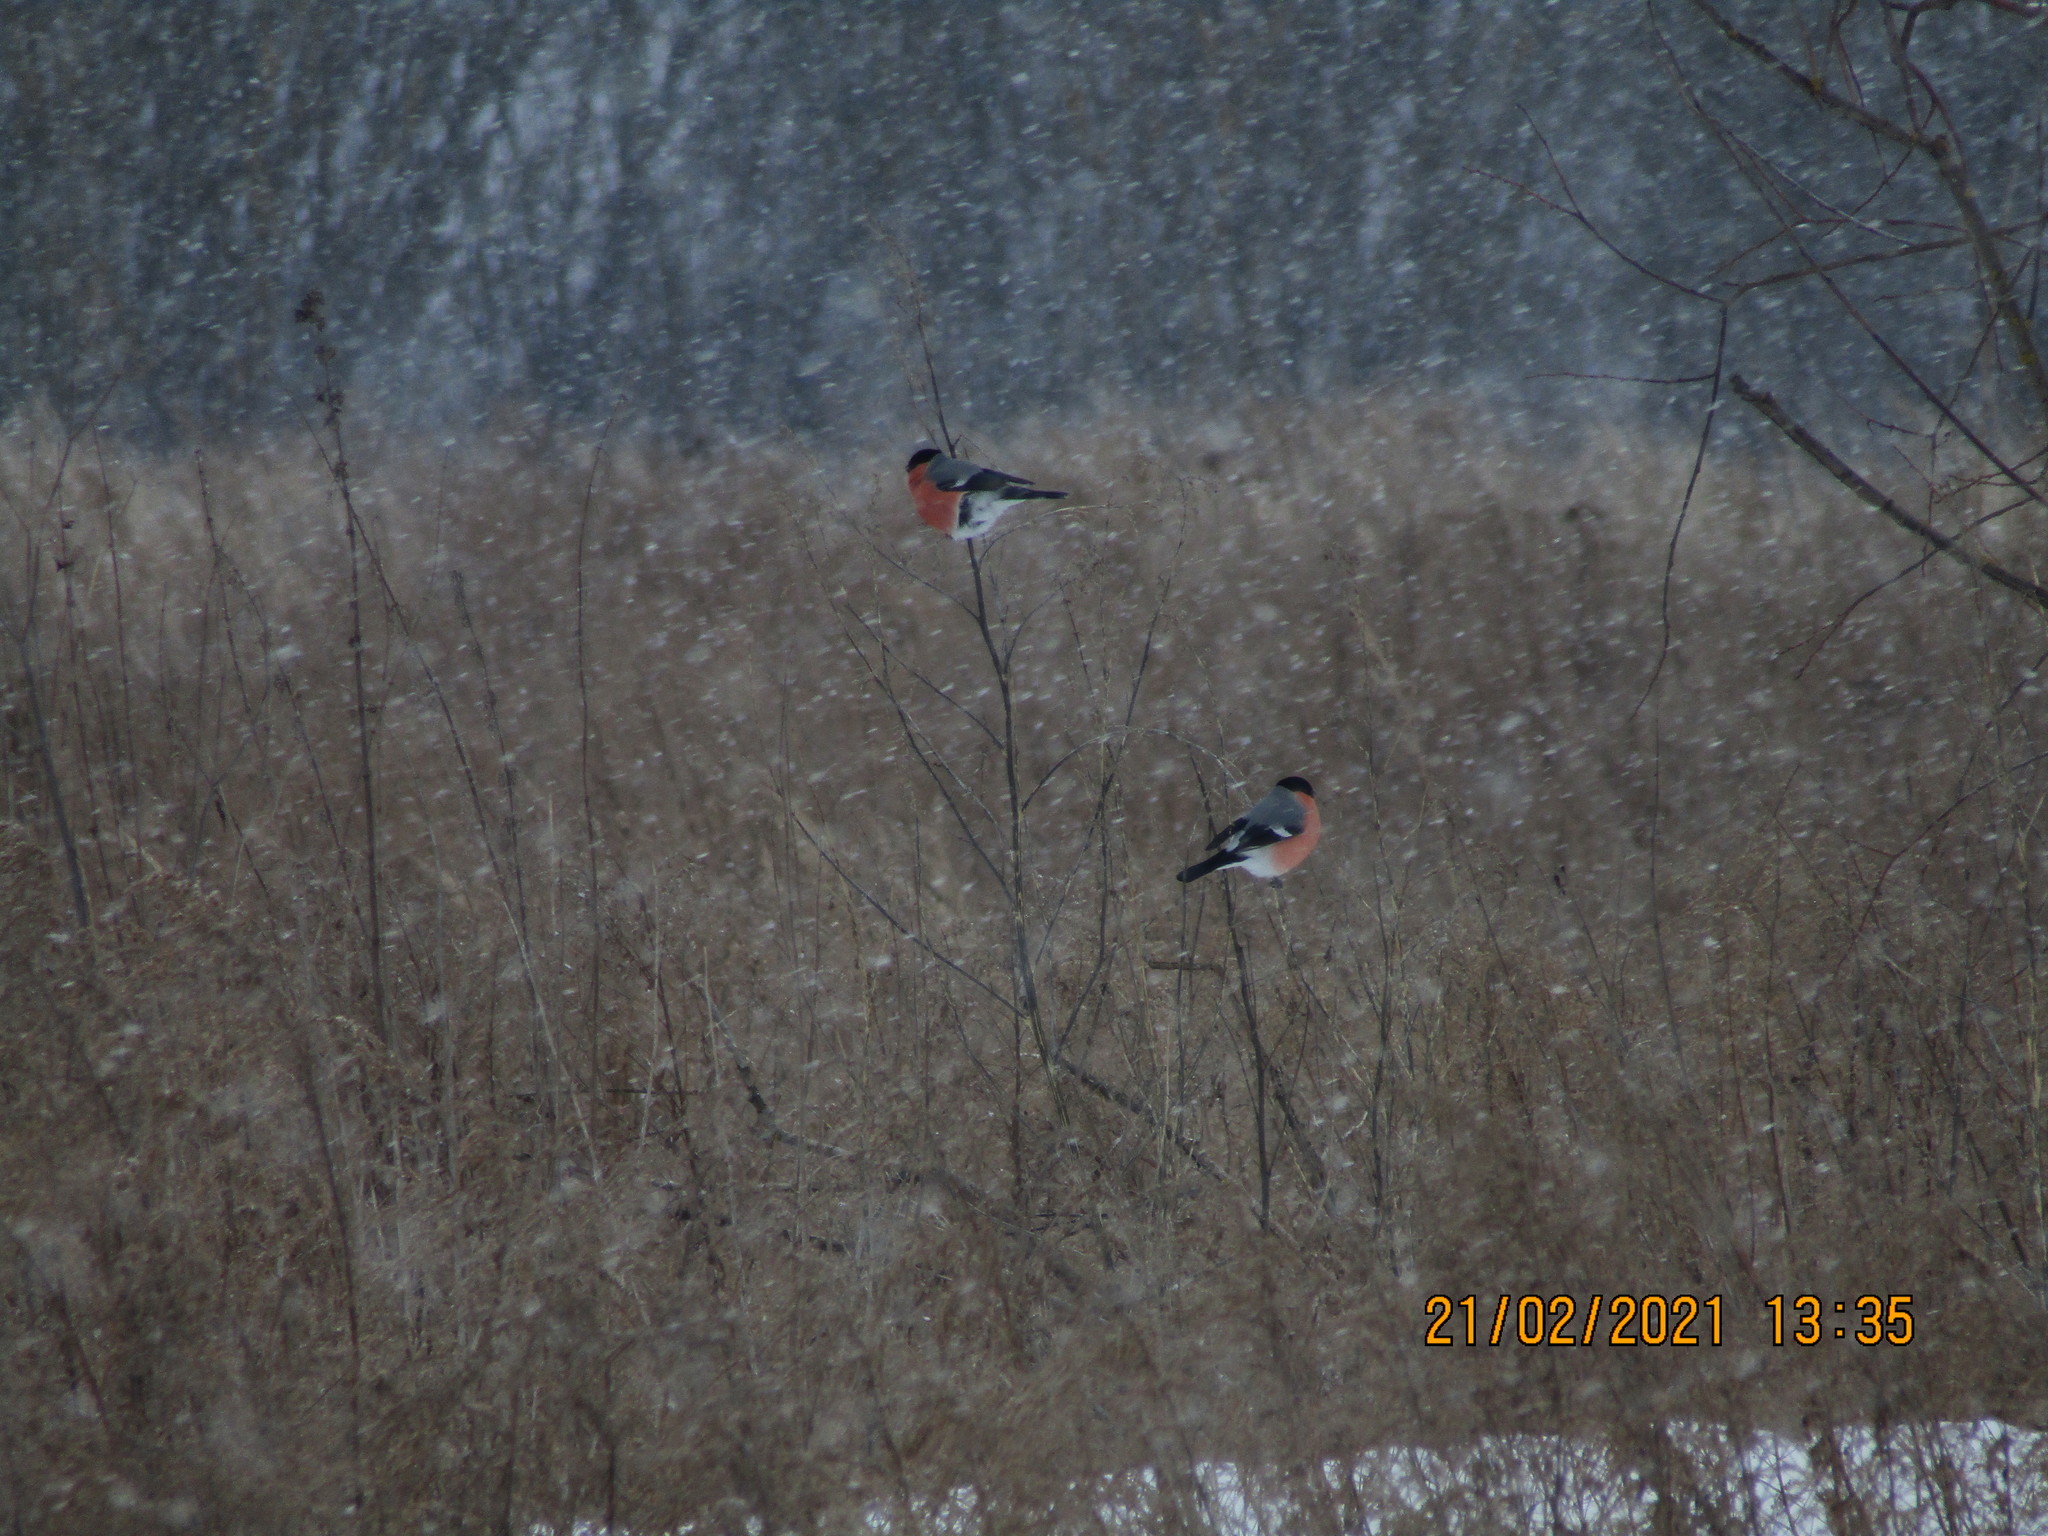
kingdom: Animalia
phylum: Chordata
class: Aves
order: Passeriformes
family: Fringillidae
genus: Pyrrhula
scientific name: Pyrrhula pyrrhula
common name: Eurasian bullfinch
